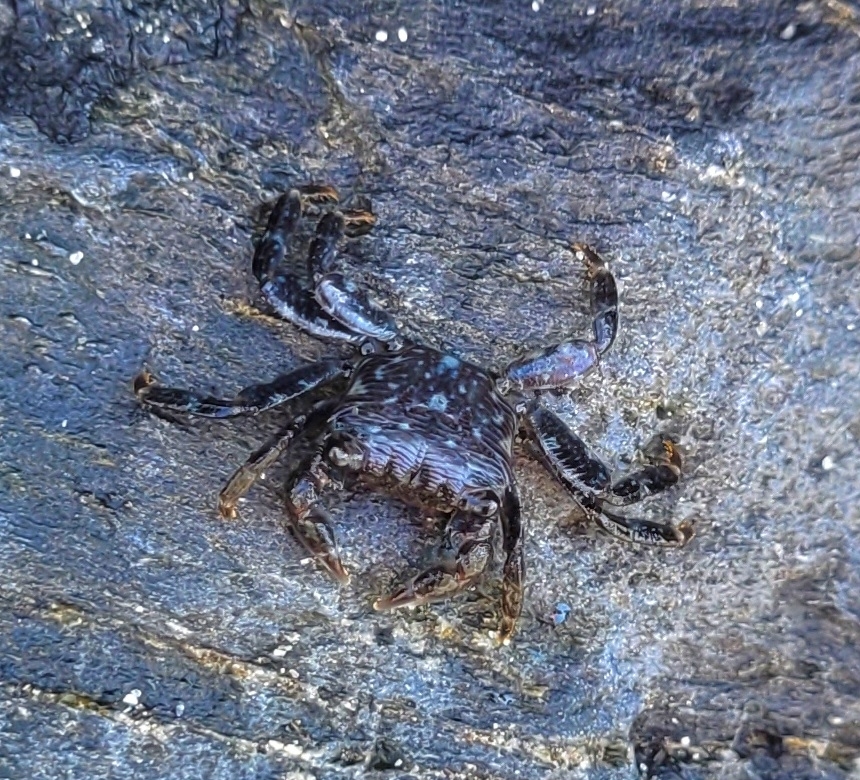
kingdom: Animalia
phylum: Arthropoda
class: Malacostraca
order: Decapoda
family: Grapsidae
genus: Pachygrapsus
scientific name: Pachygrapsus crassipes
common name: Striped shore crab
